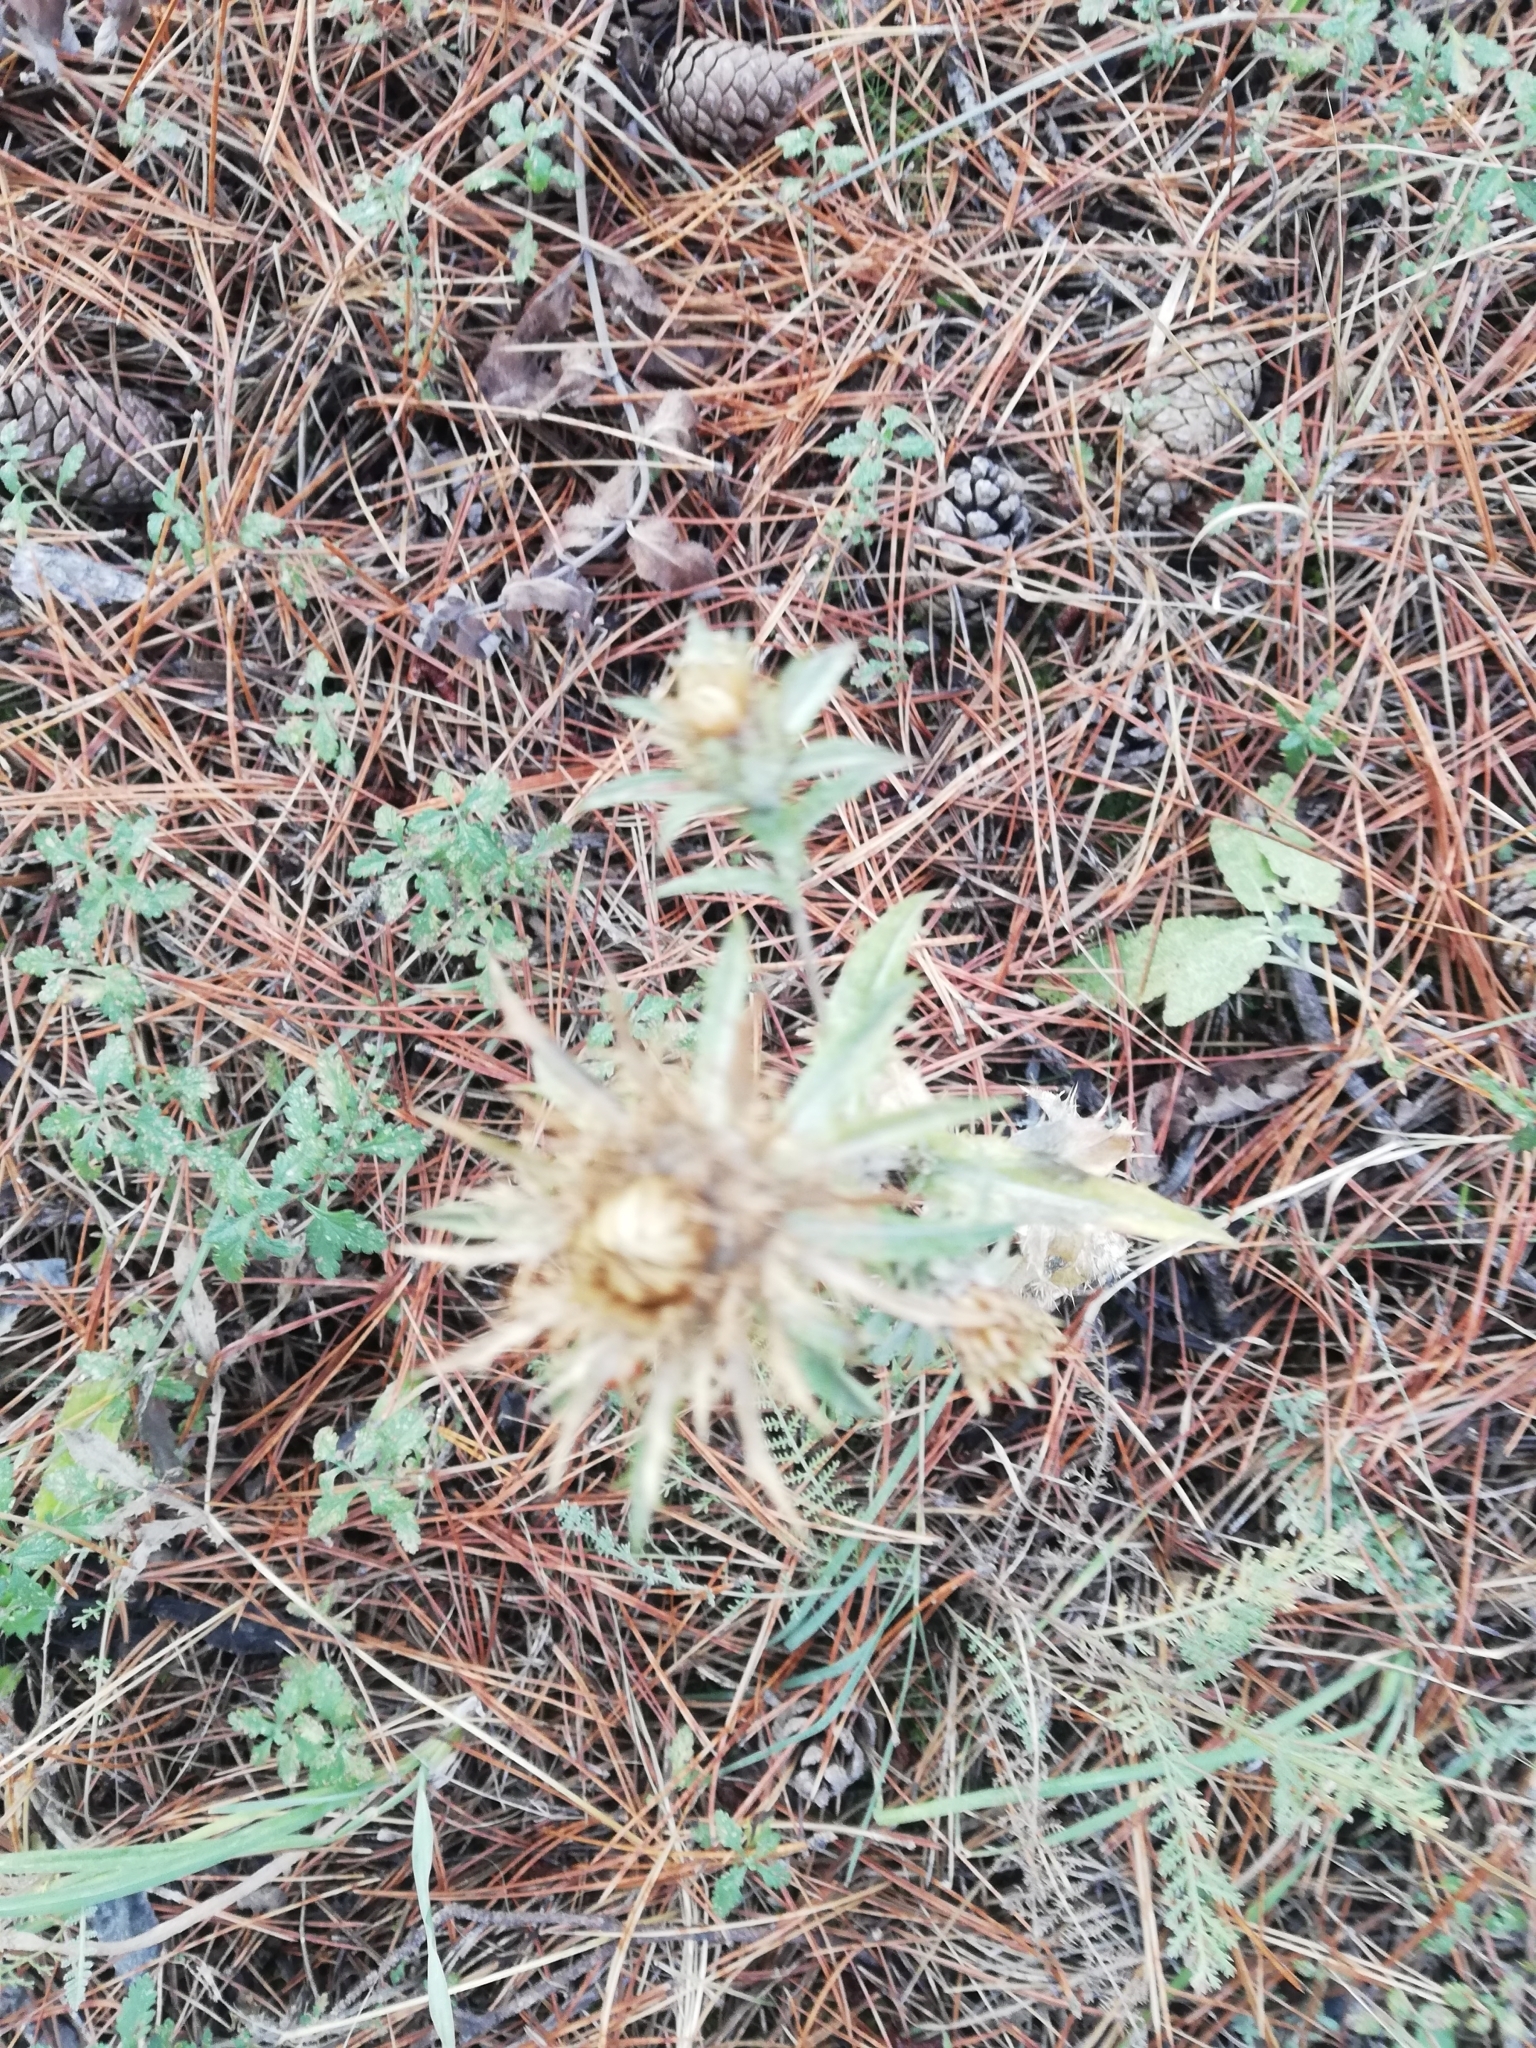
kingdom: Plantae
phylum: Tracheophyta
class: Magnoliopsida
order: Asterales
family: Asteraceae
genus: Carlina
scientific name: Carlina vulgaris
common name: Carline thistle
